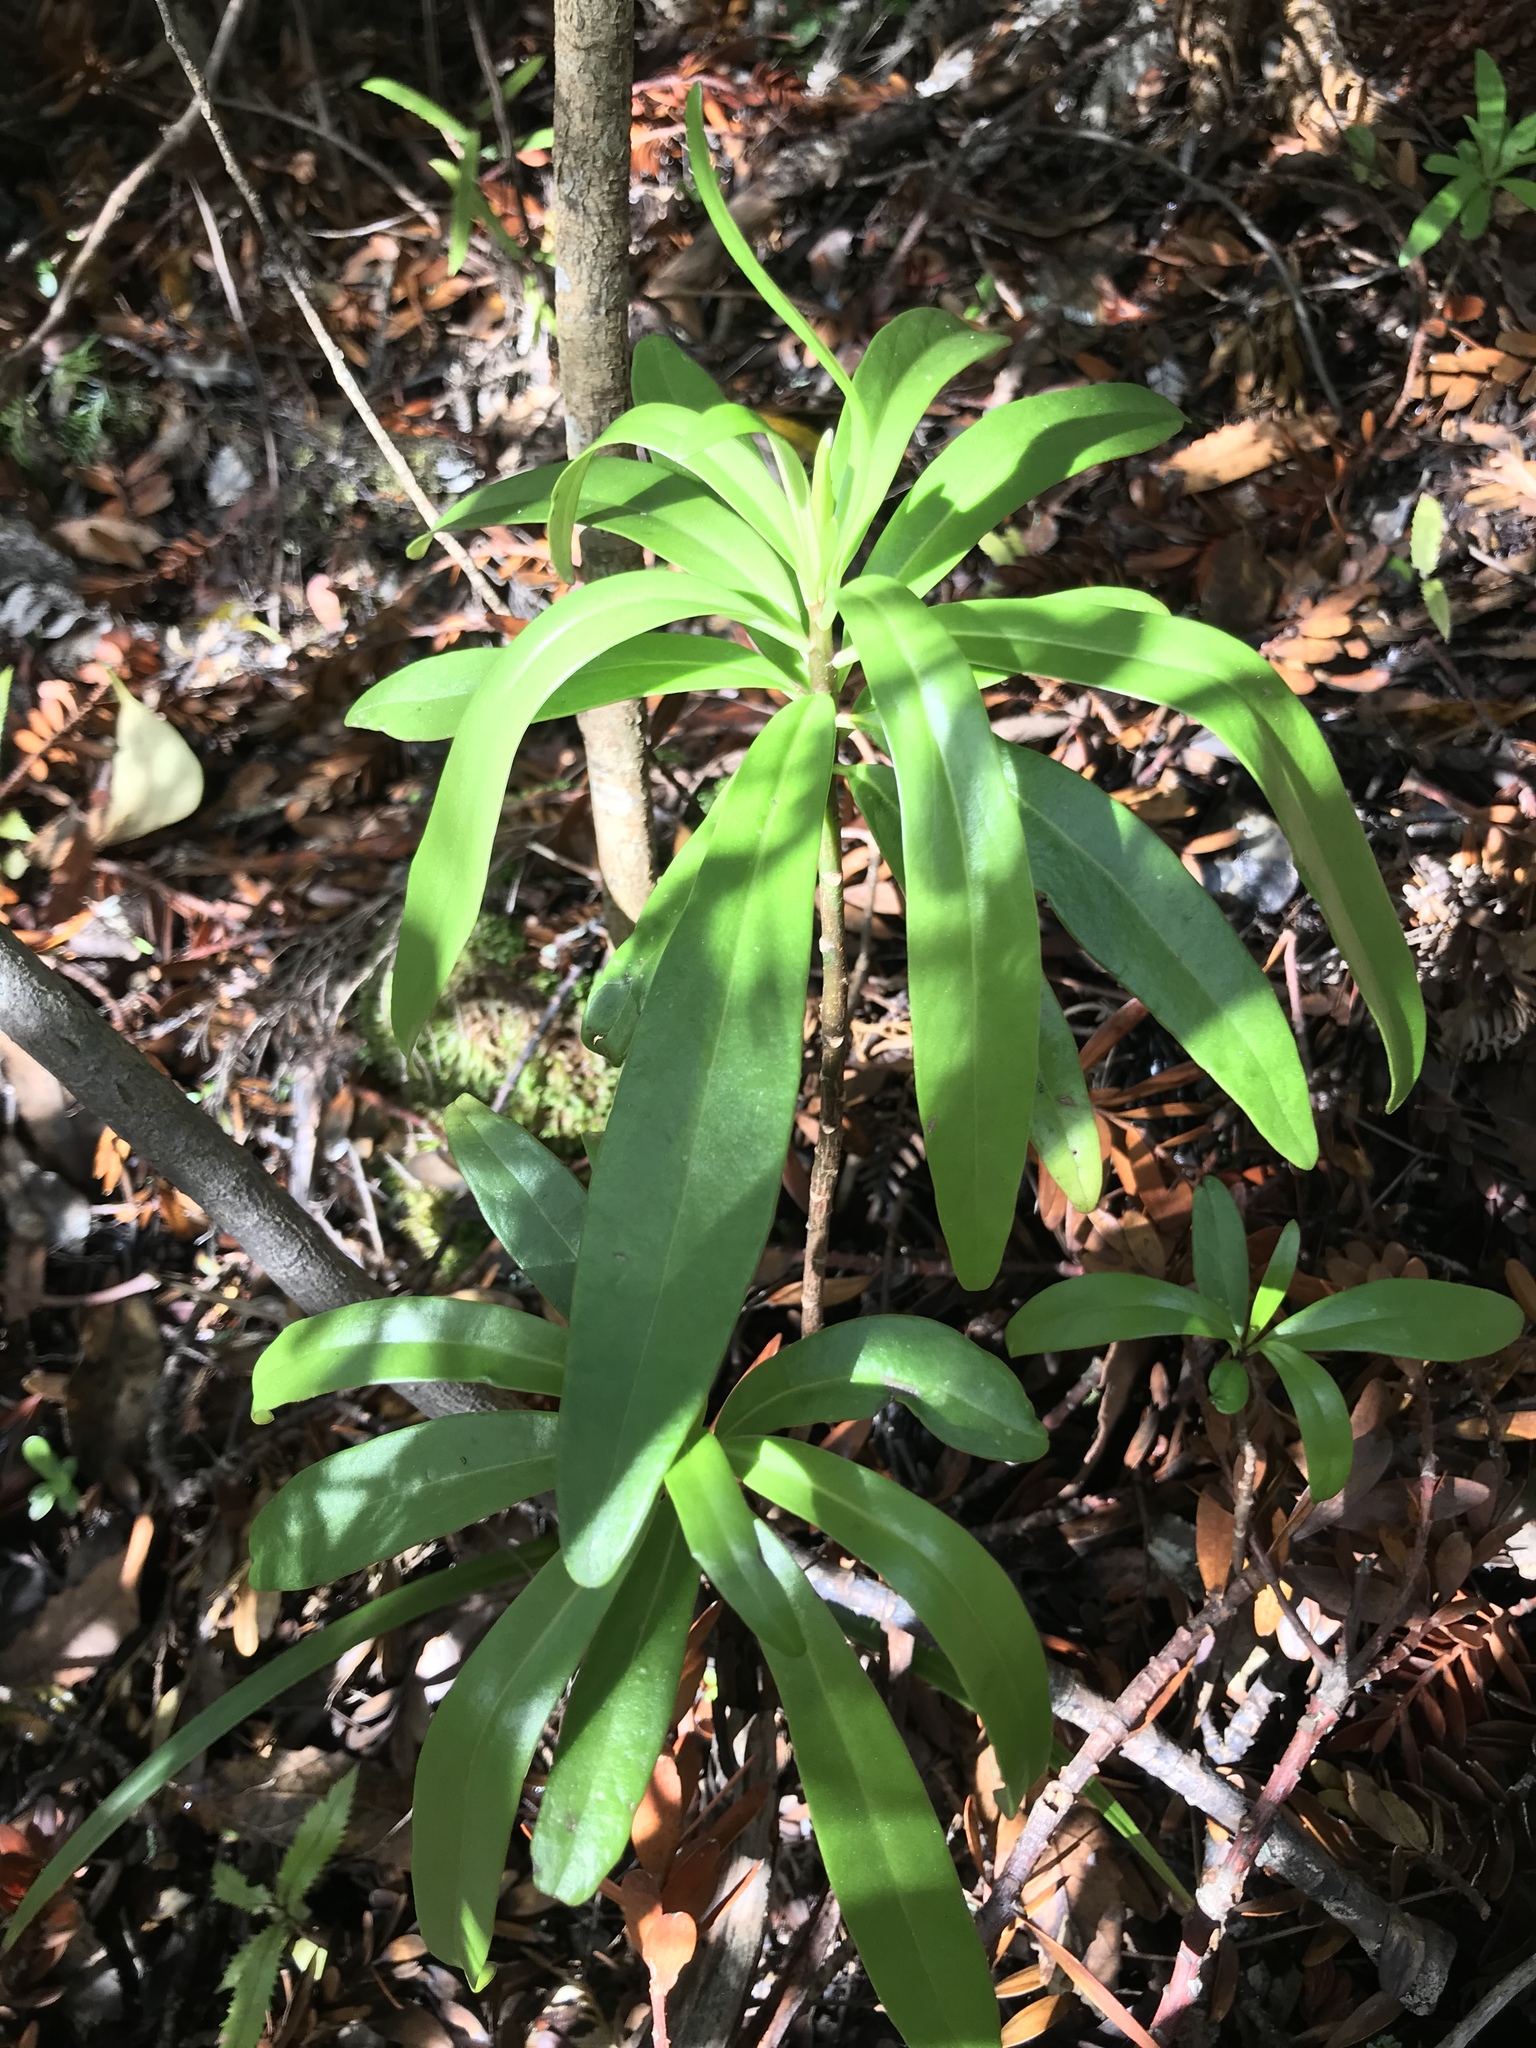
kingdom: Plantae
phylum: Tracheophyta
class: Magnoliopsida
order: Asterales
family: Asteraceae
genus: Brachyglottis
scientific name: Brachyglottis kirkii
